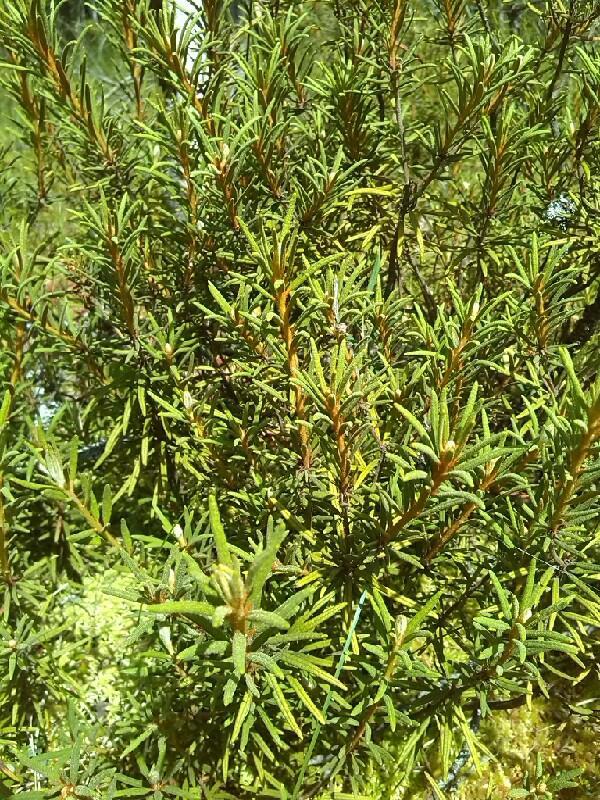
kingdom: Plantae
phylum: Tracheophyta
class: Magnoliopsida
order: Ericales
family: Ericaceae
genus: Rhododendron
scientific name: Rhododendron tomentosum
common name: Marsh labrador tea
